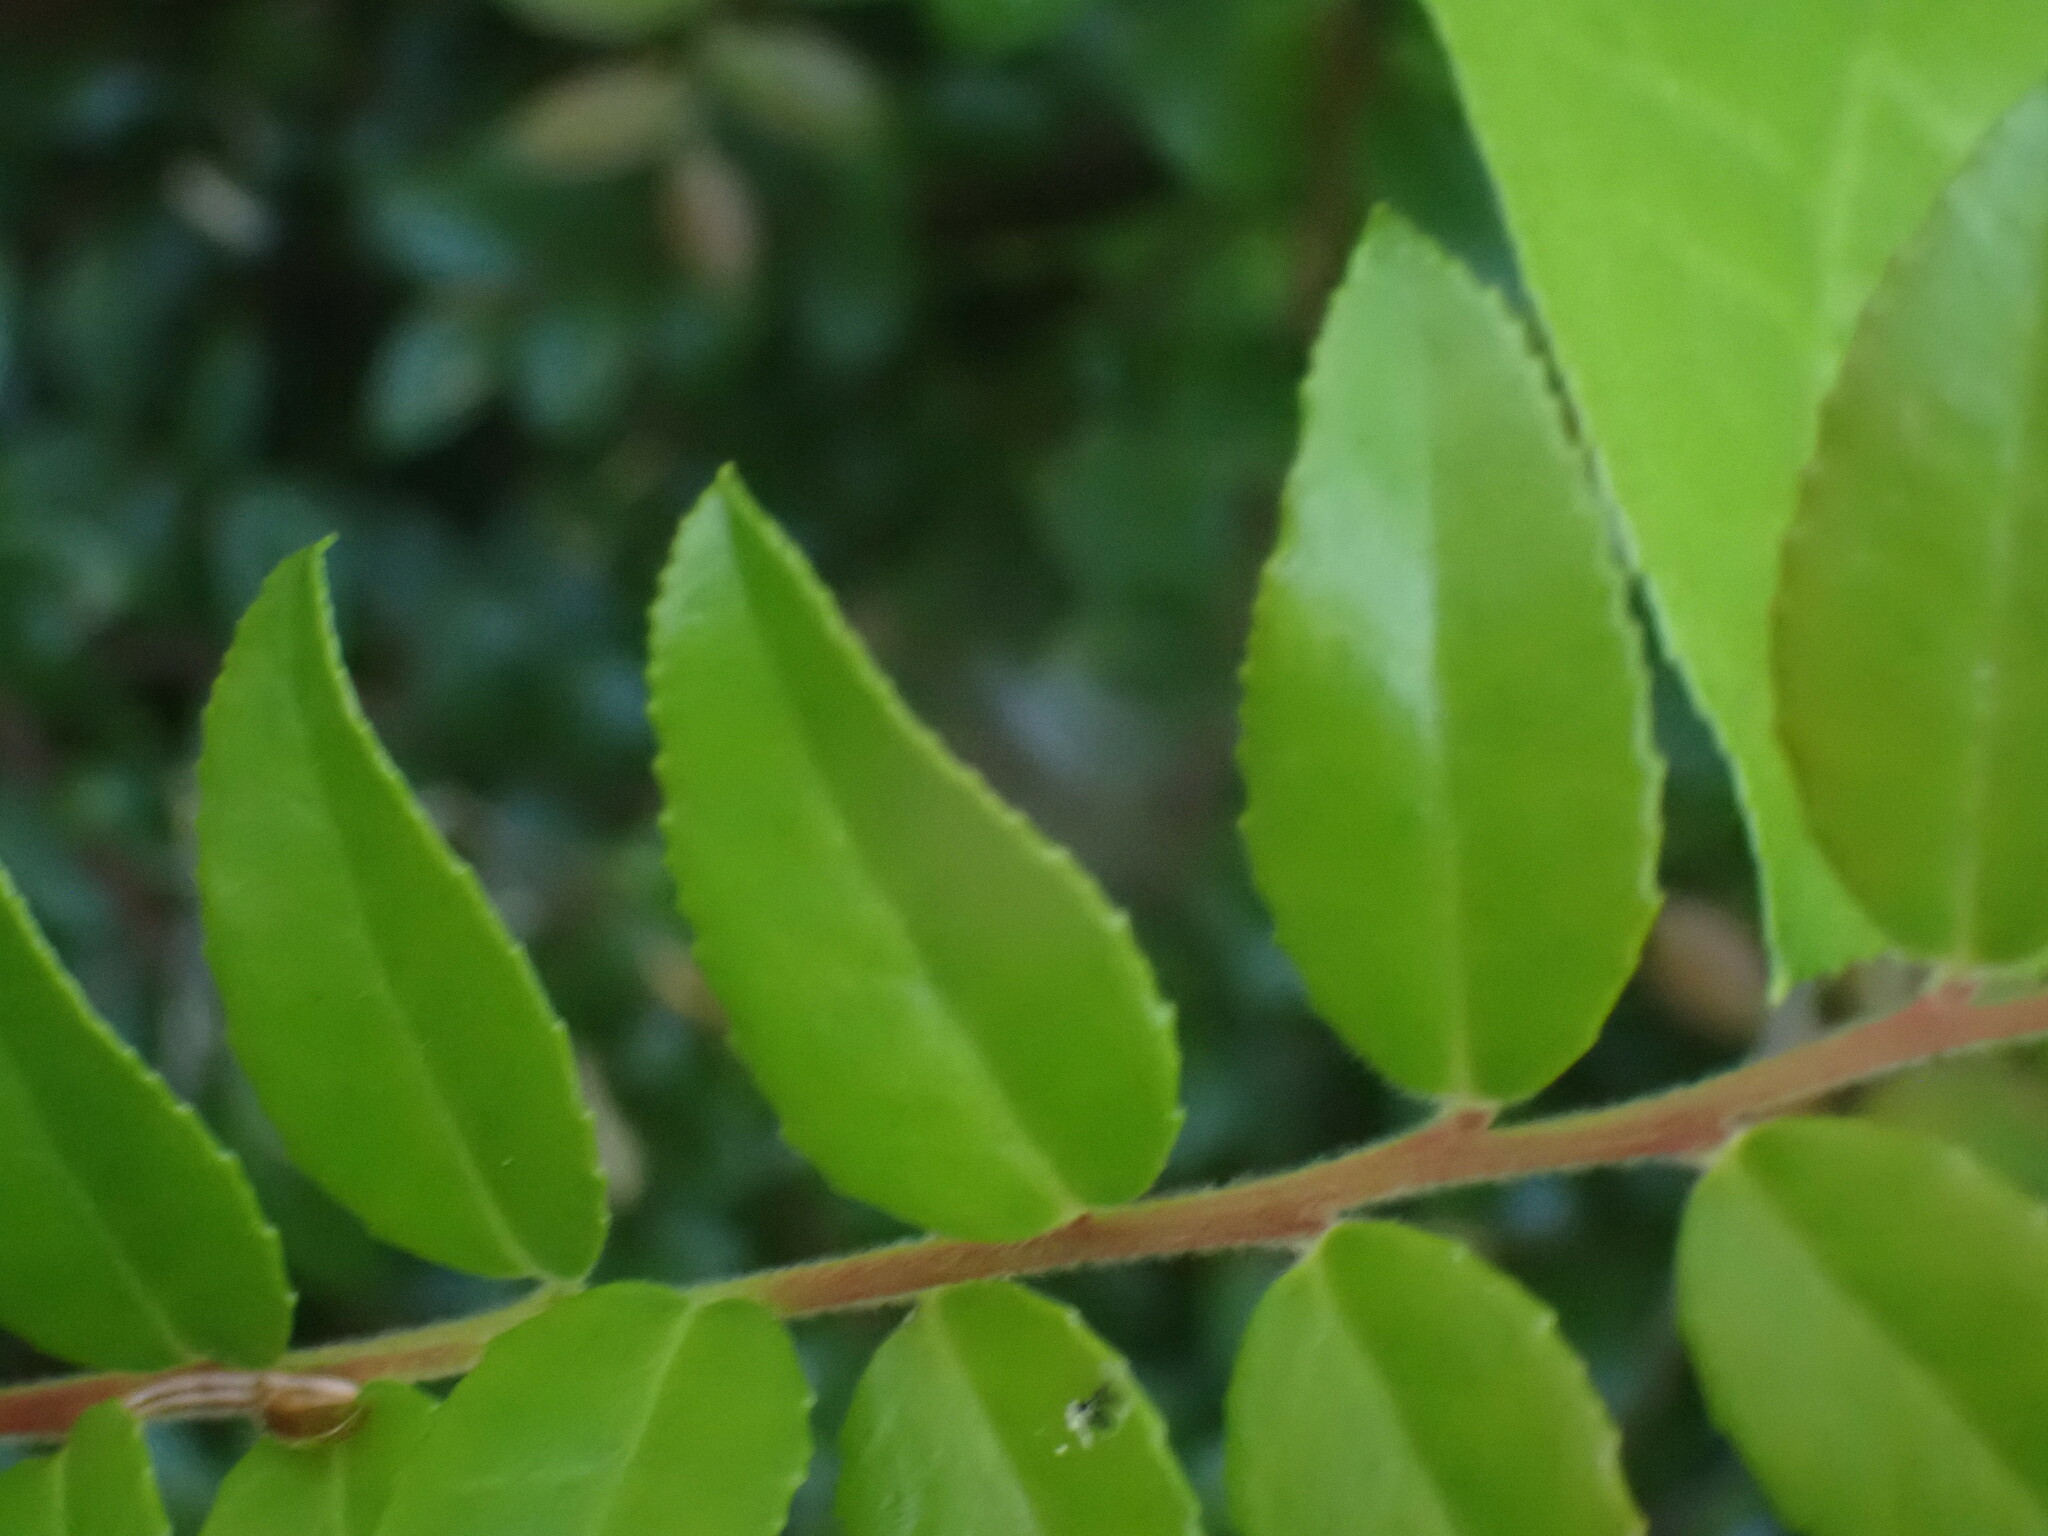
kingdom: Plantae
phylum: Tracheophyta
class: Magnoliopsida
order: Ericales
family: Ericaceae
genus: Vaccinium
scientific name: Vaccinium ovatum
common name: California-huckleberry
